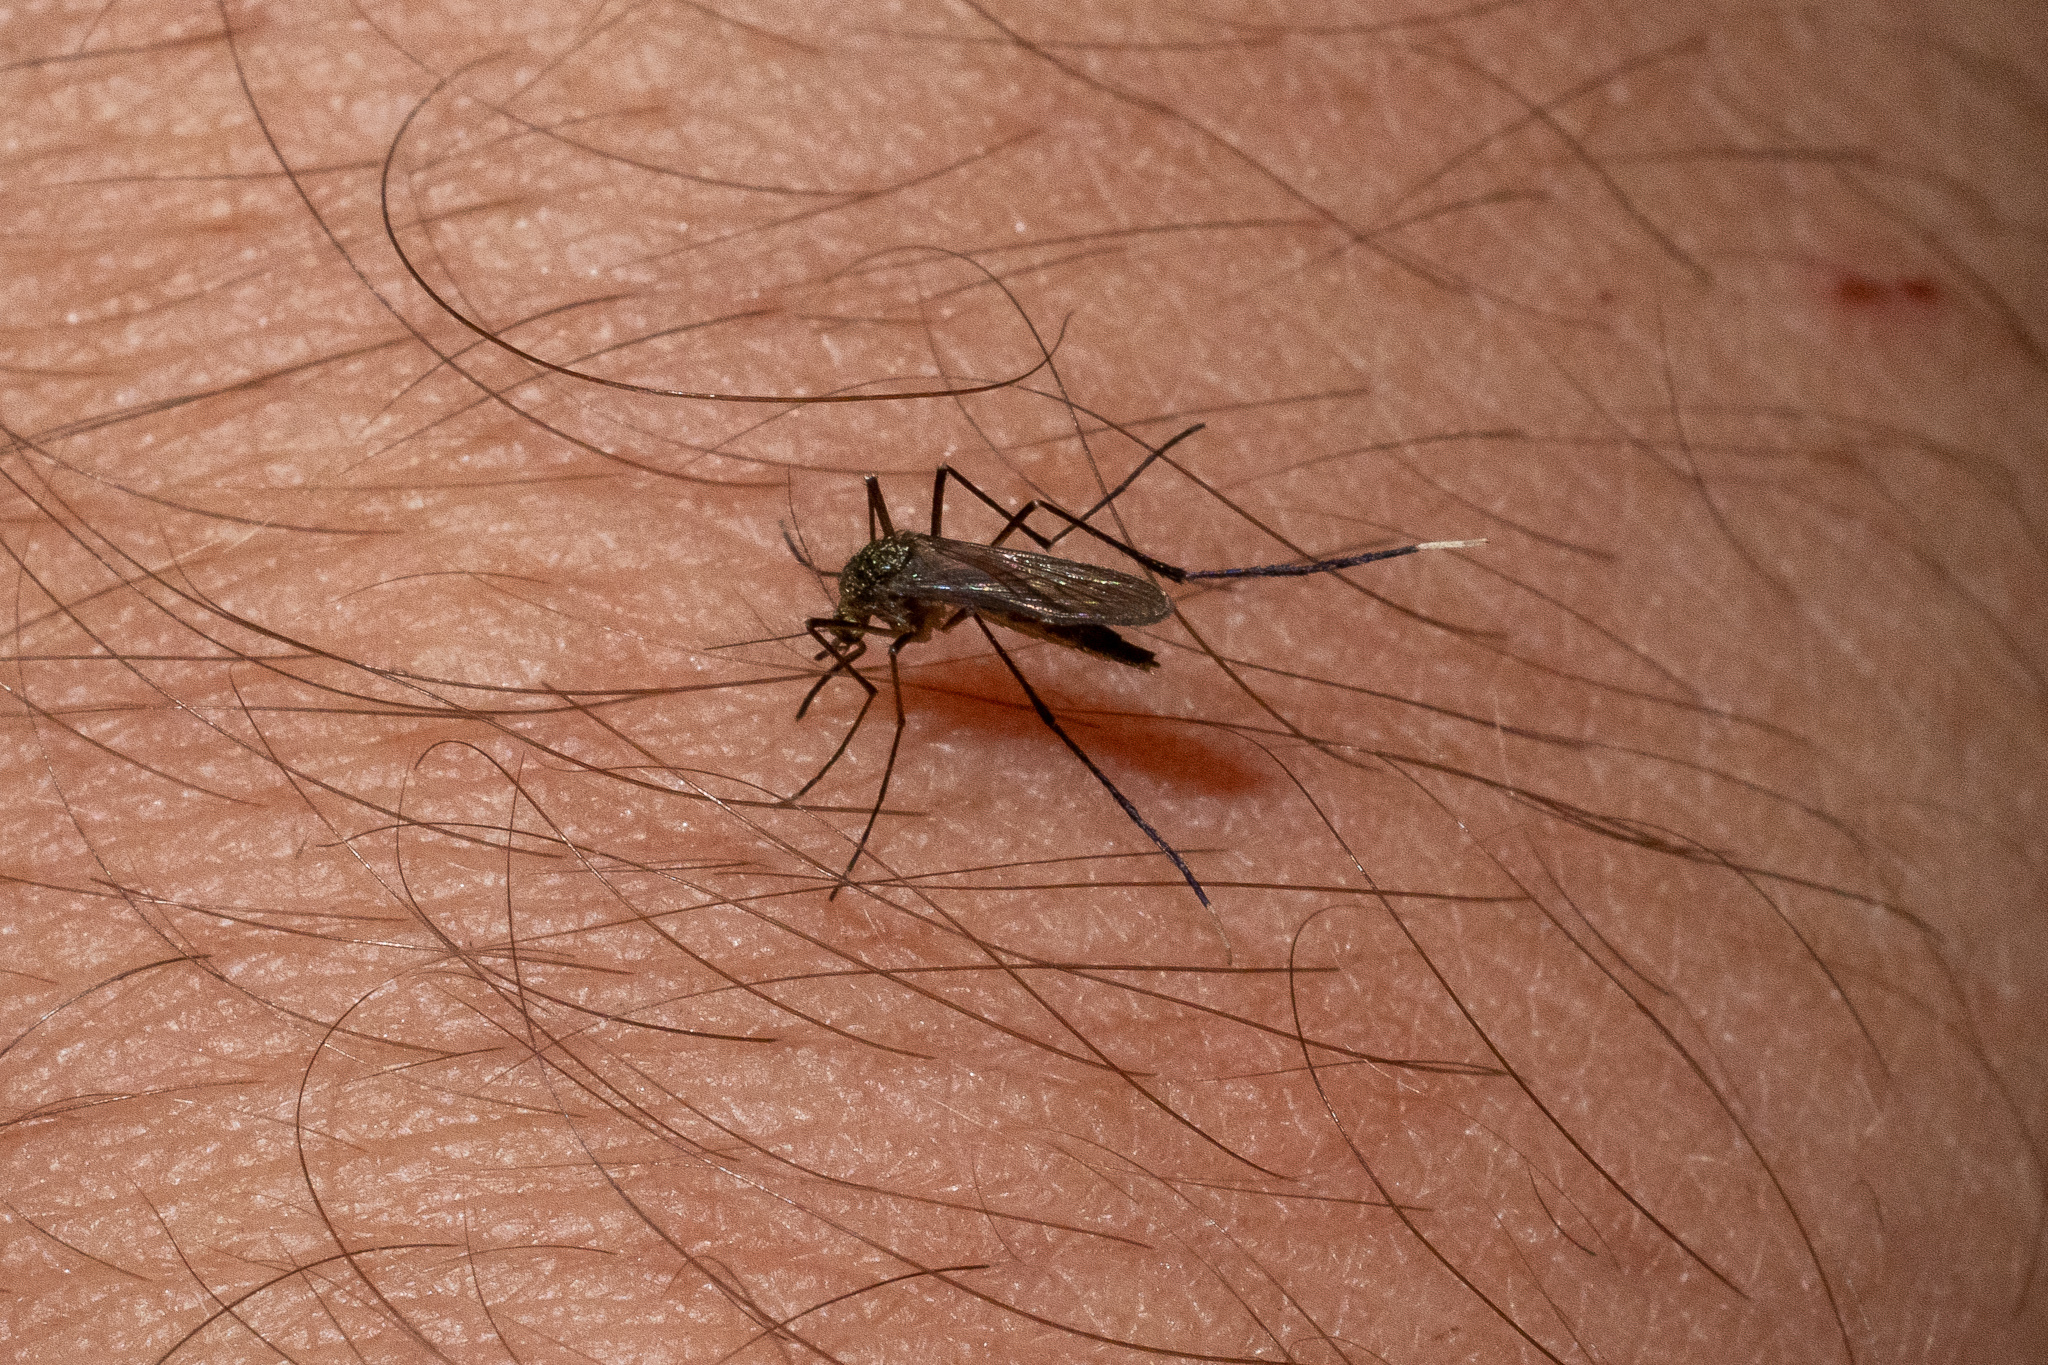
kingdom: Animalia
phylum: Arthropoda
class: Insecta
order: Diptera
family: Culicidae
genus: Psorophora
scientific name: Psorophora ferox
